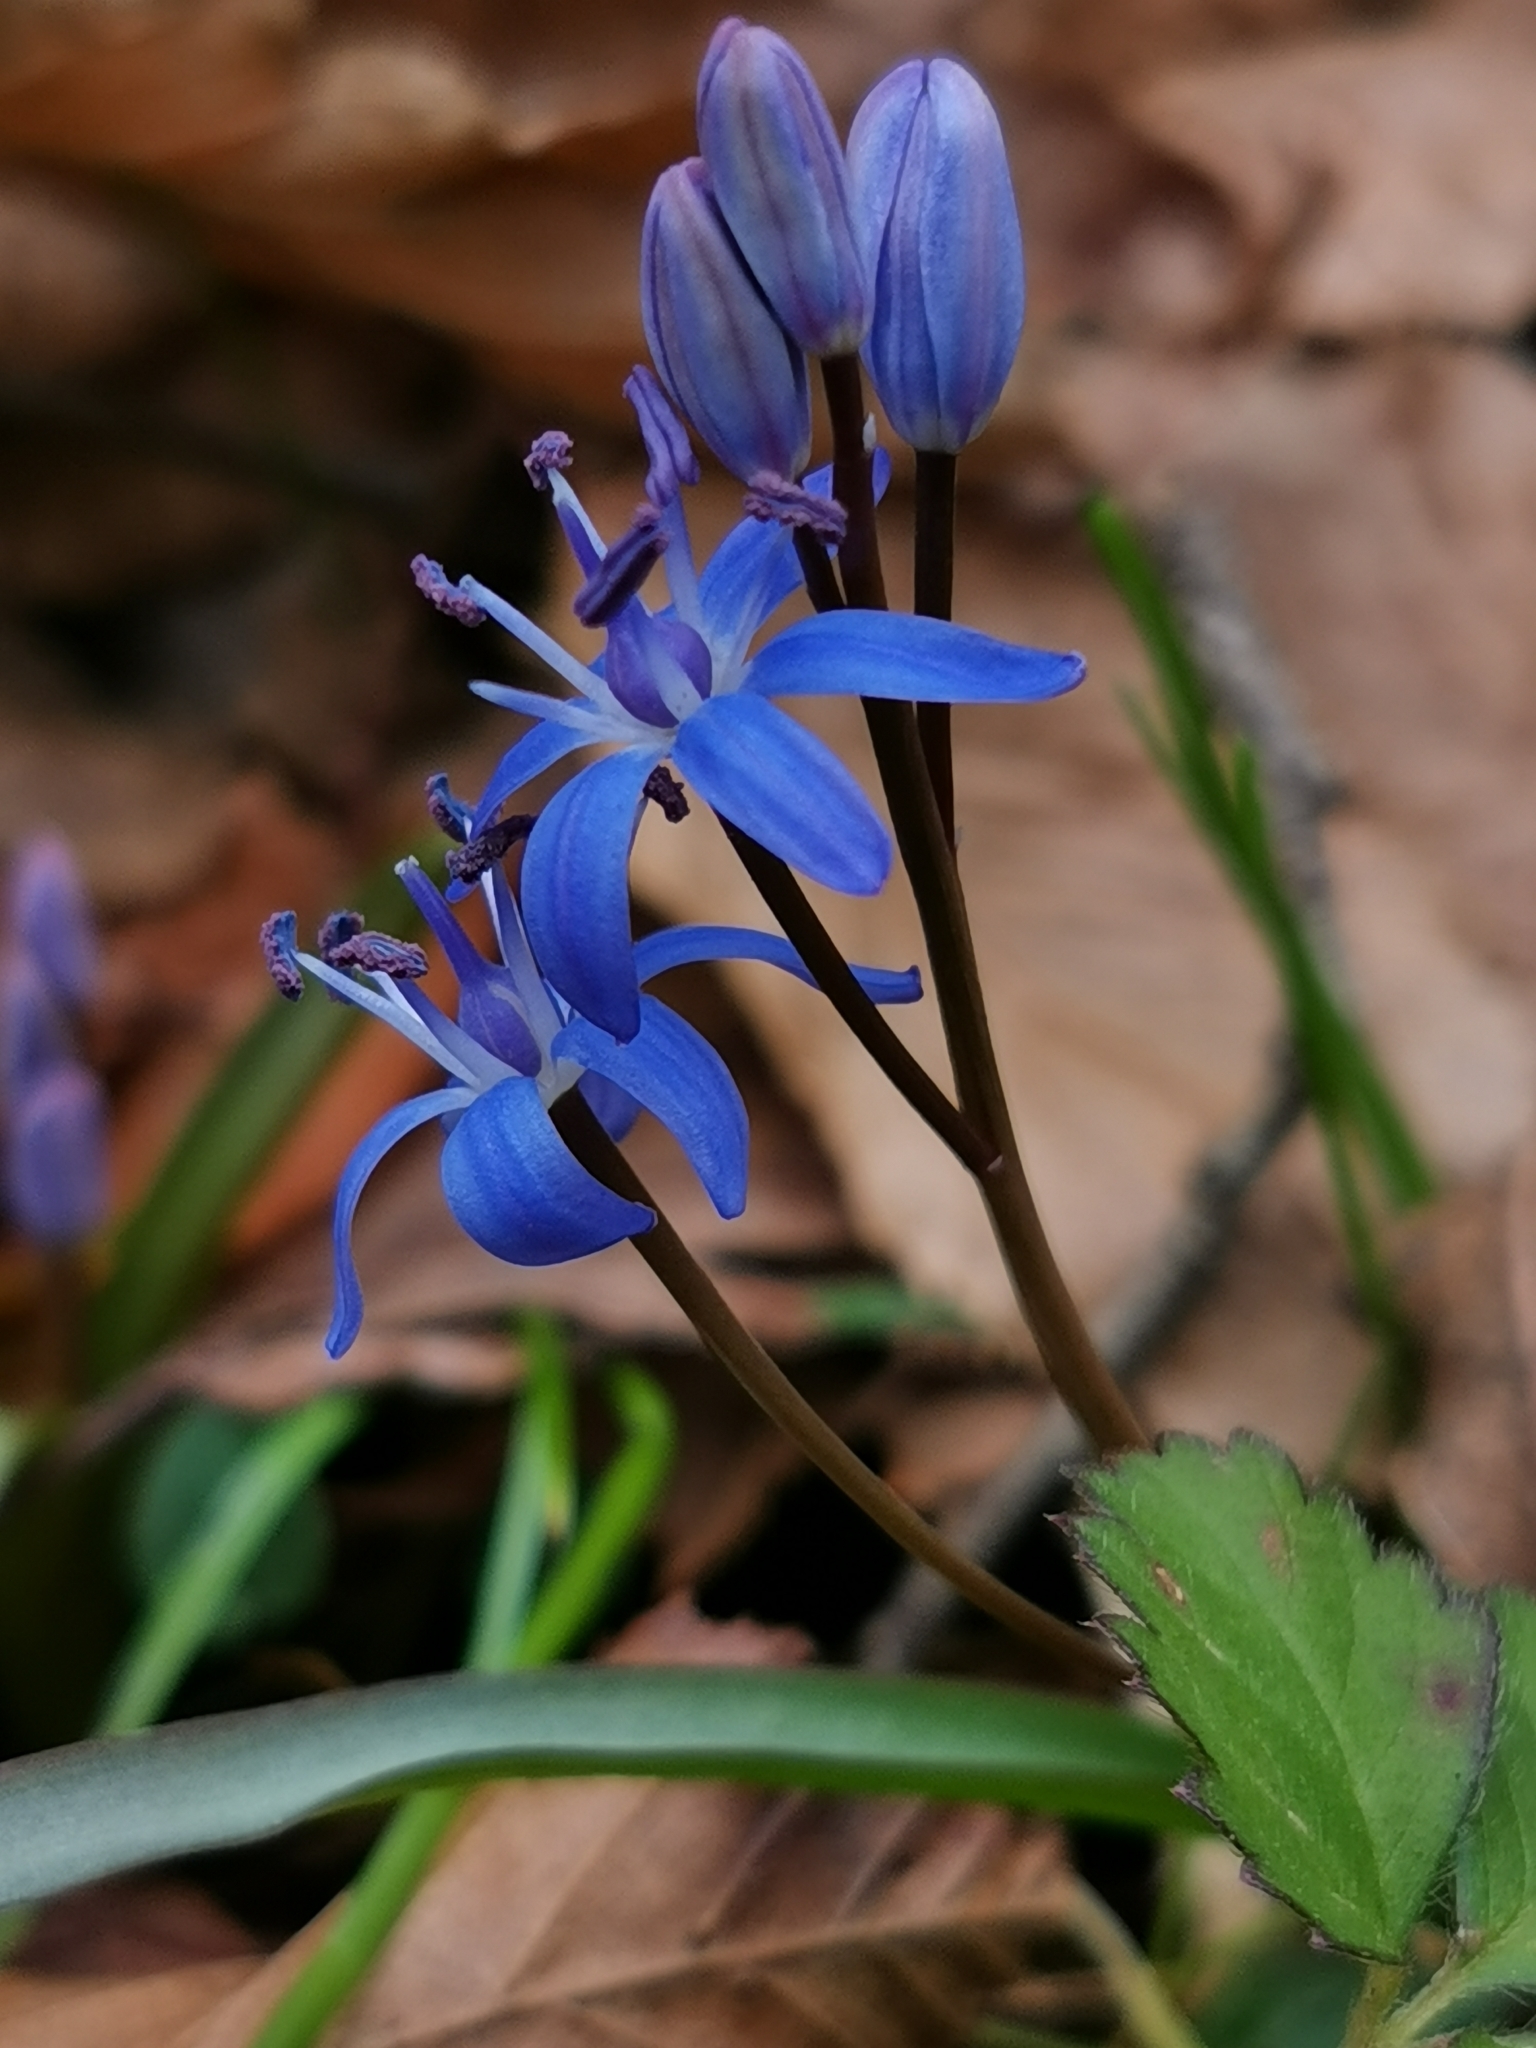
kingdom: Plantae
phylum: Tracheophyta
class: Liliopsida
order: Asparagales
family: Asparagaceae
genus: Scilla
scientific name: Scilla bifolia
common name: Alpine squill
